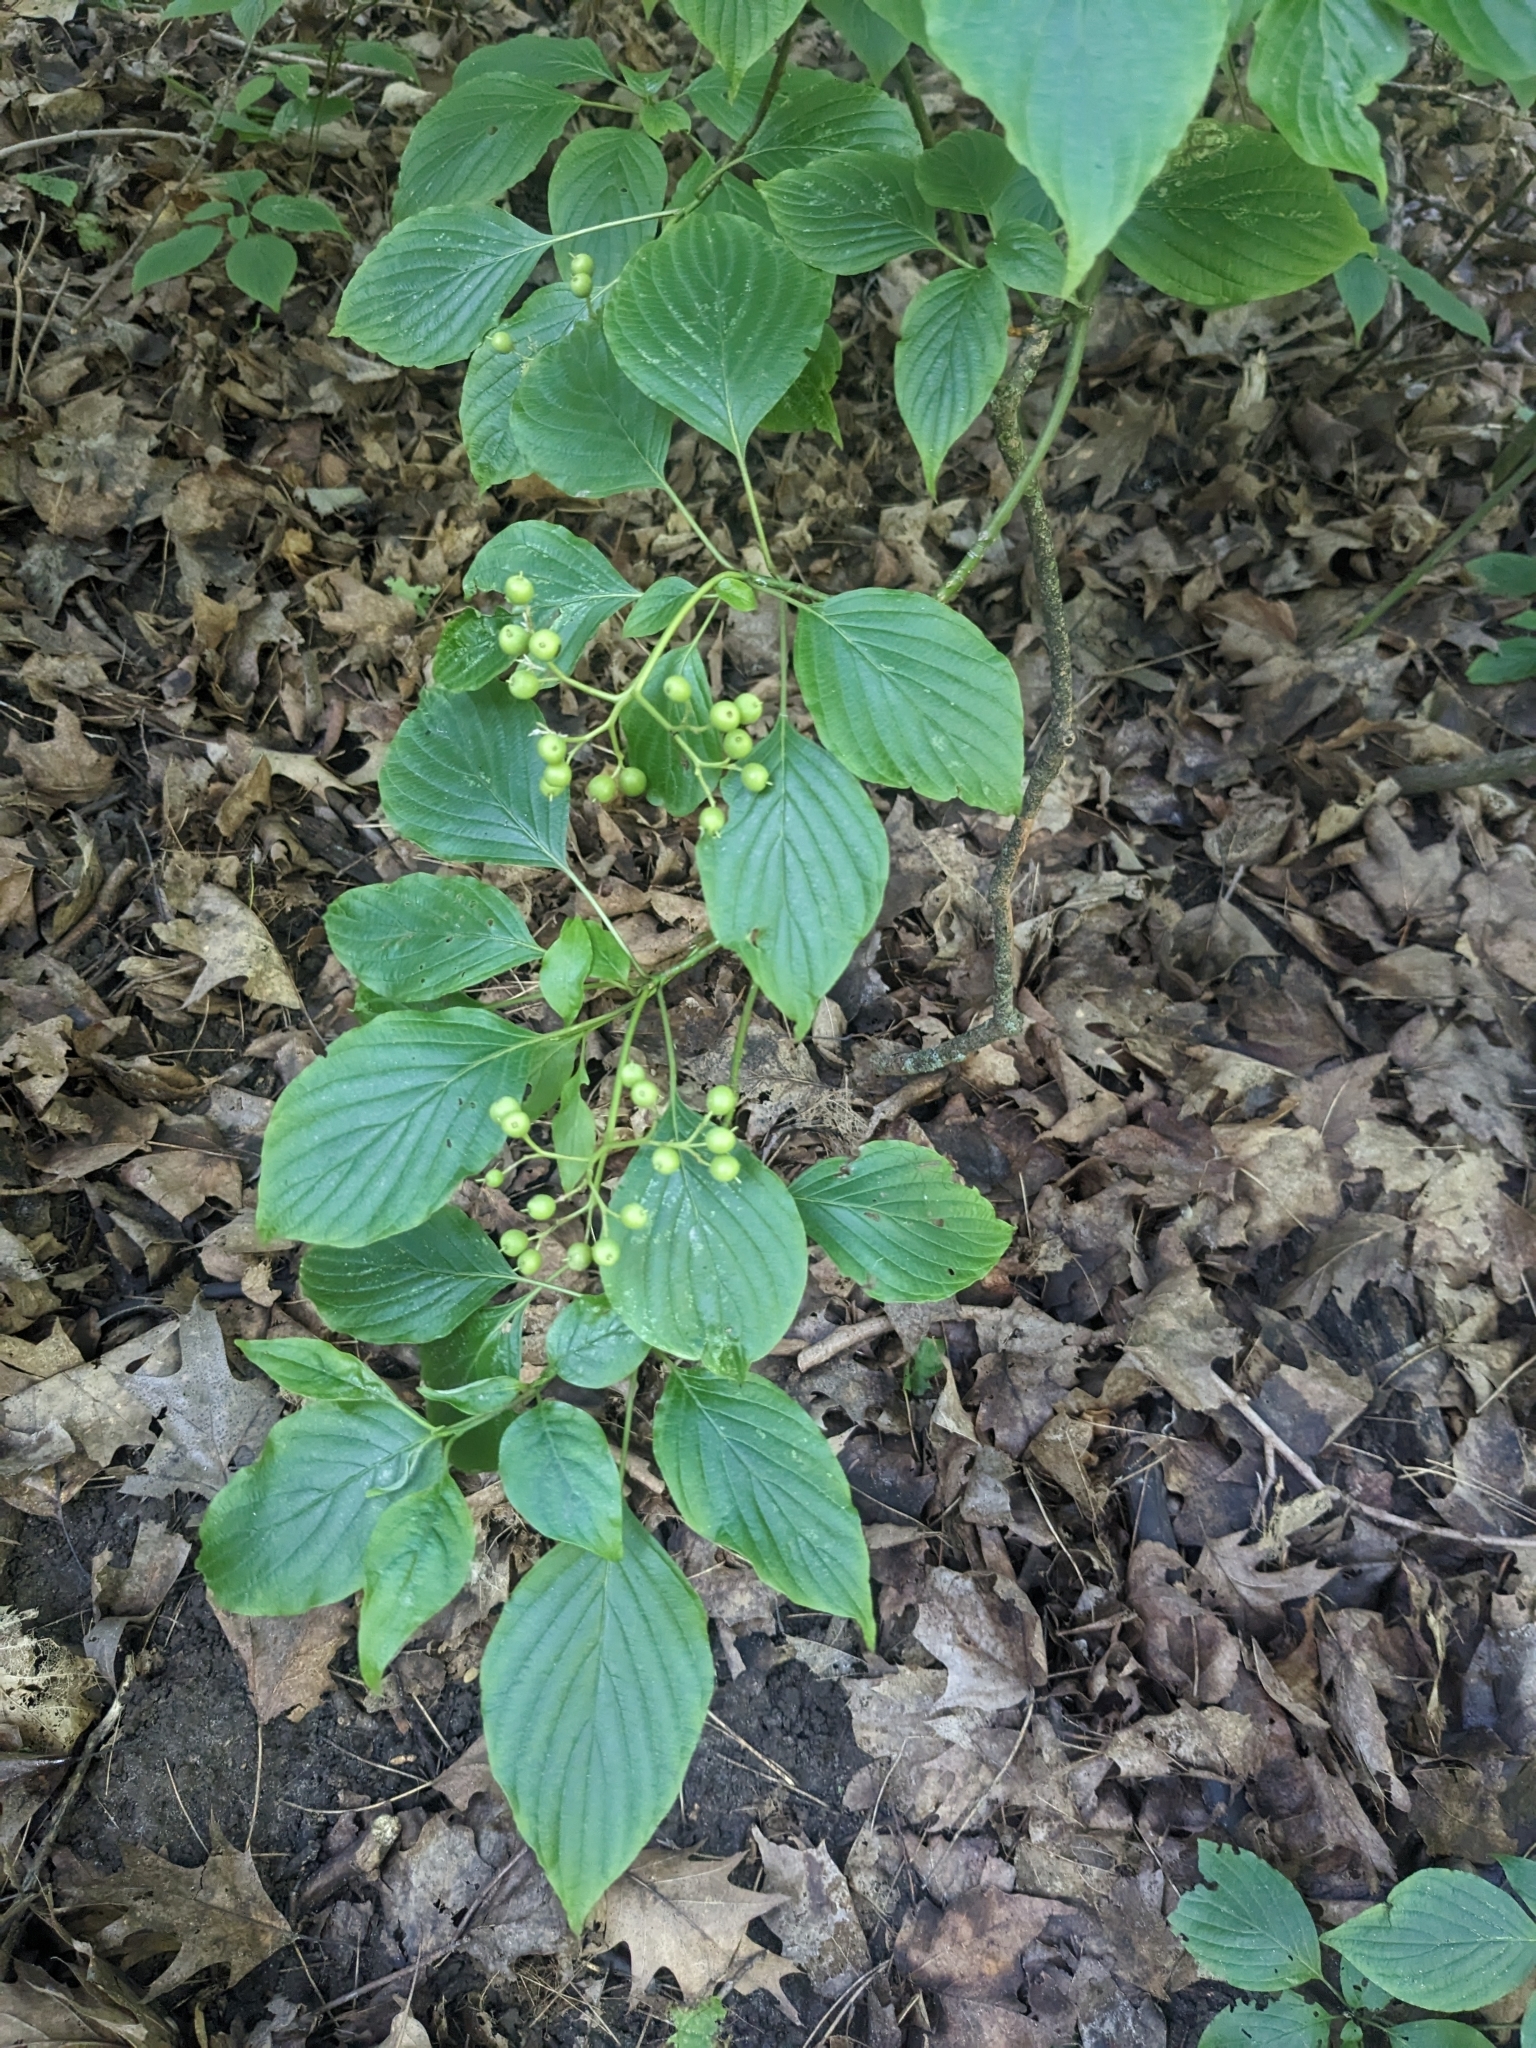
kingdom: Plantae
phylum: Tracheophyta
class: Magnoliopsida
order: Cornales
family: Cornaceae
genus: Cornus
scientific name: Cornus alternifolia
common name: Pagoda dogwood
